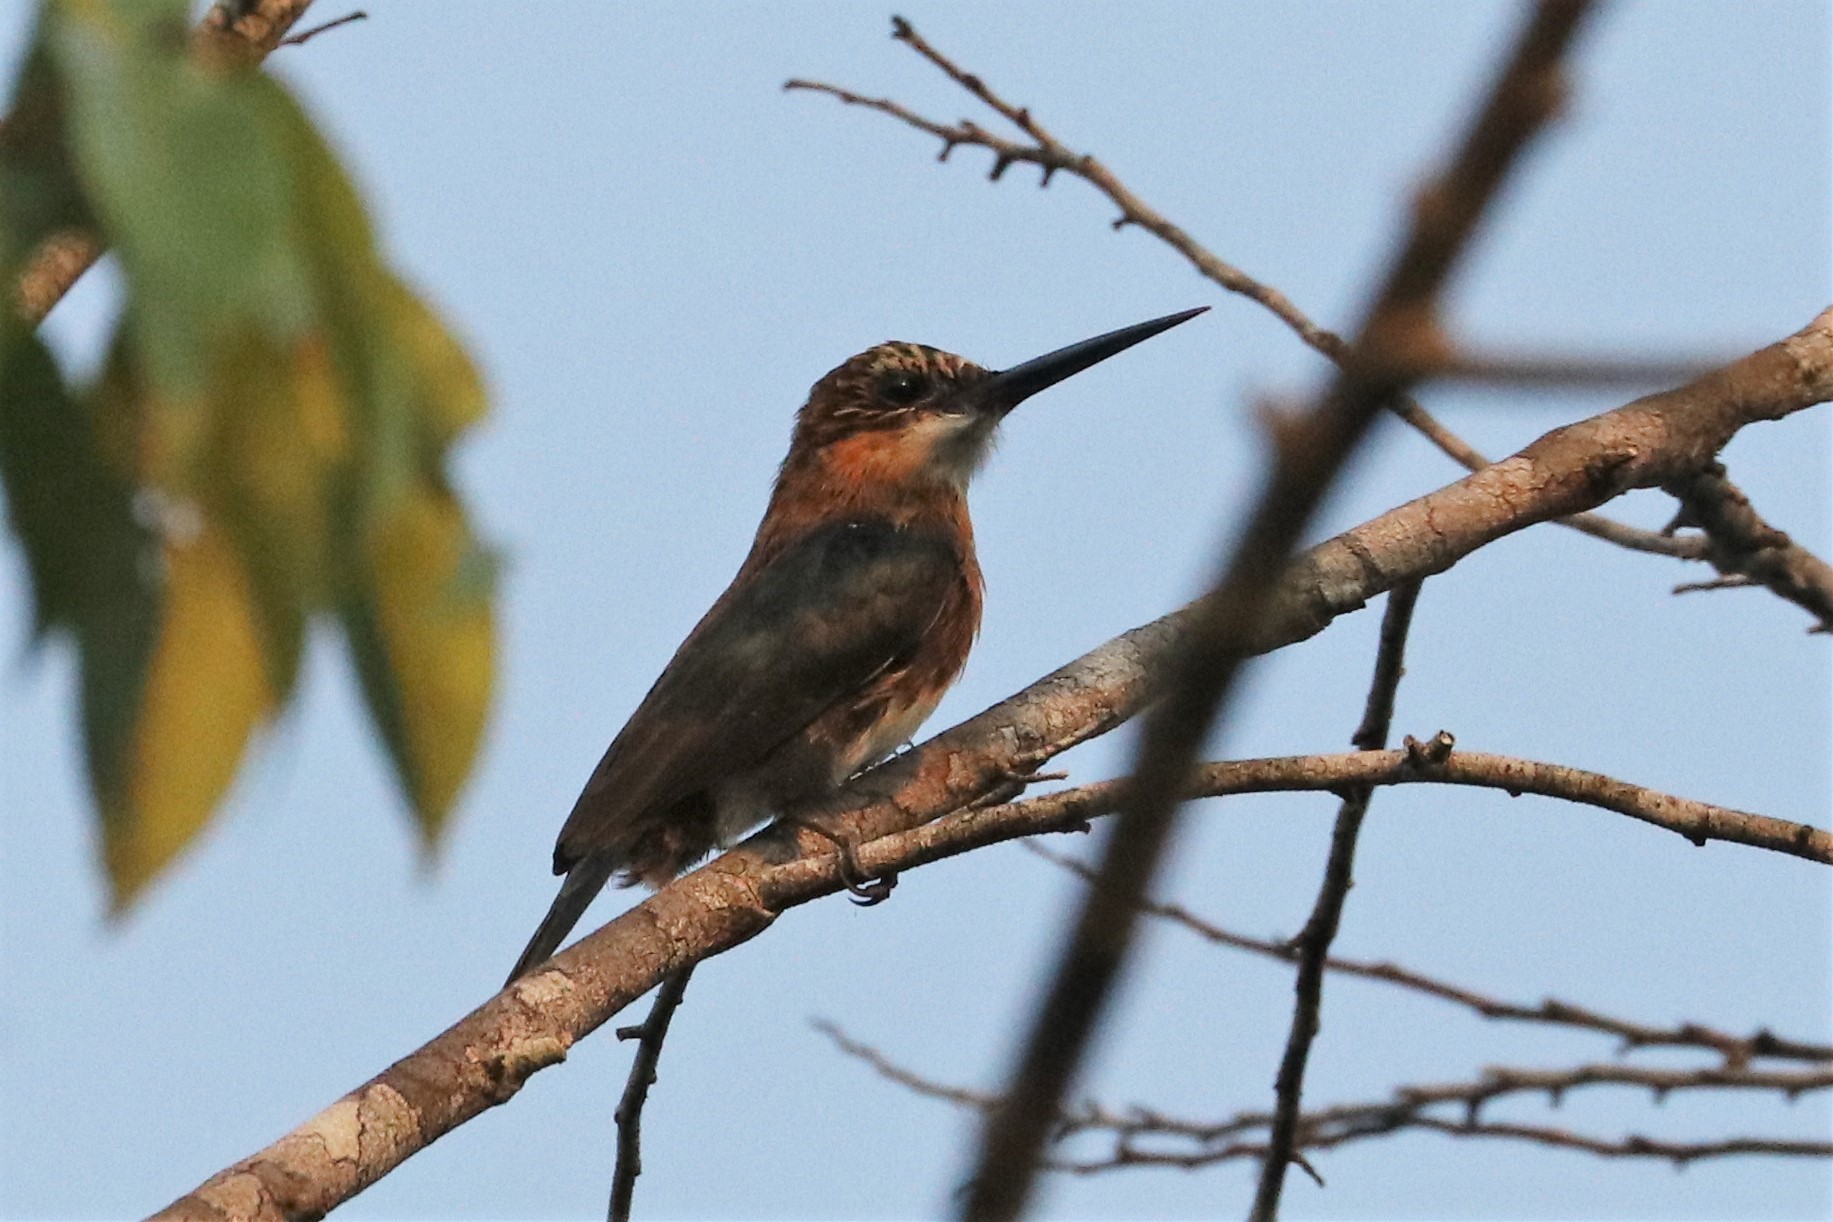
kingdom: Animalia
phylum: Chordata
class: Aves
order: Piciformes
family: Galbulidae
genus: Brachygalba
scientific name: Brachygalba lugubris
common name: Brown jacamar
